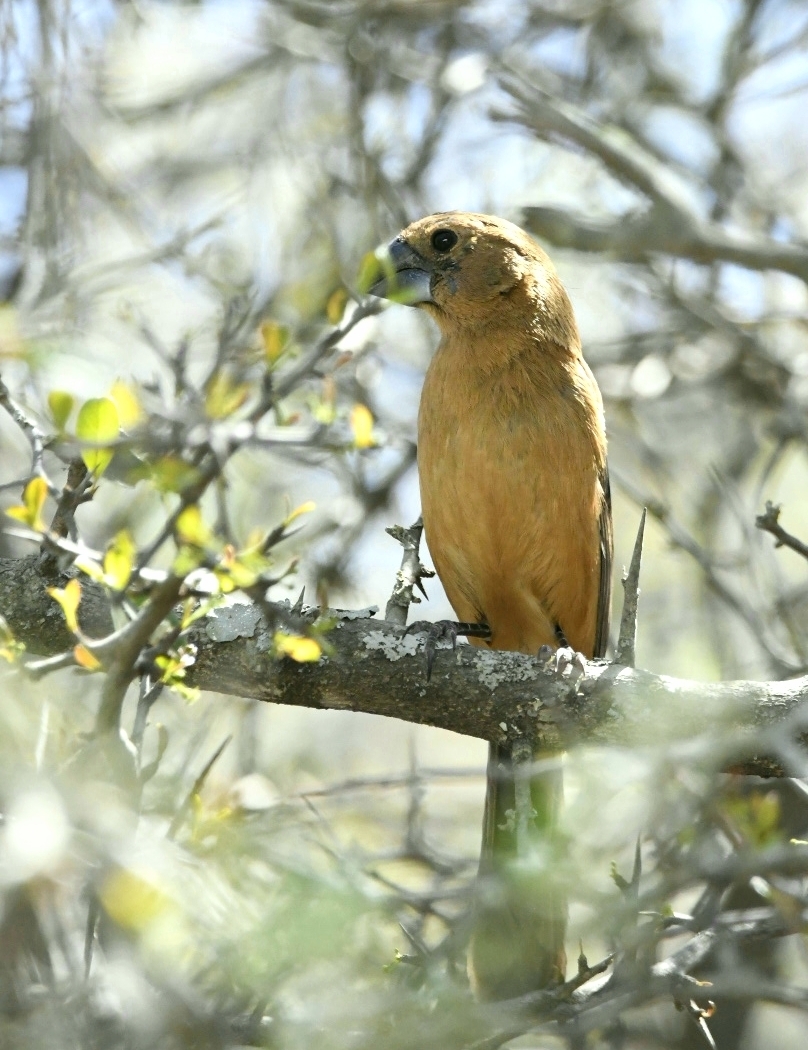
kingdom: Animalia
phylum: Chordata
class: Aves
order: Passeriformes
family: Cardinalidae
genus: Cyanoloxia
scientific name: Cyanoloxia brissonii
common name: Ultramarine grosbeak
